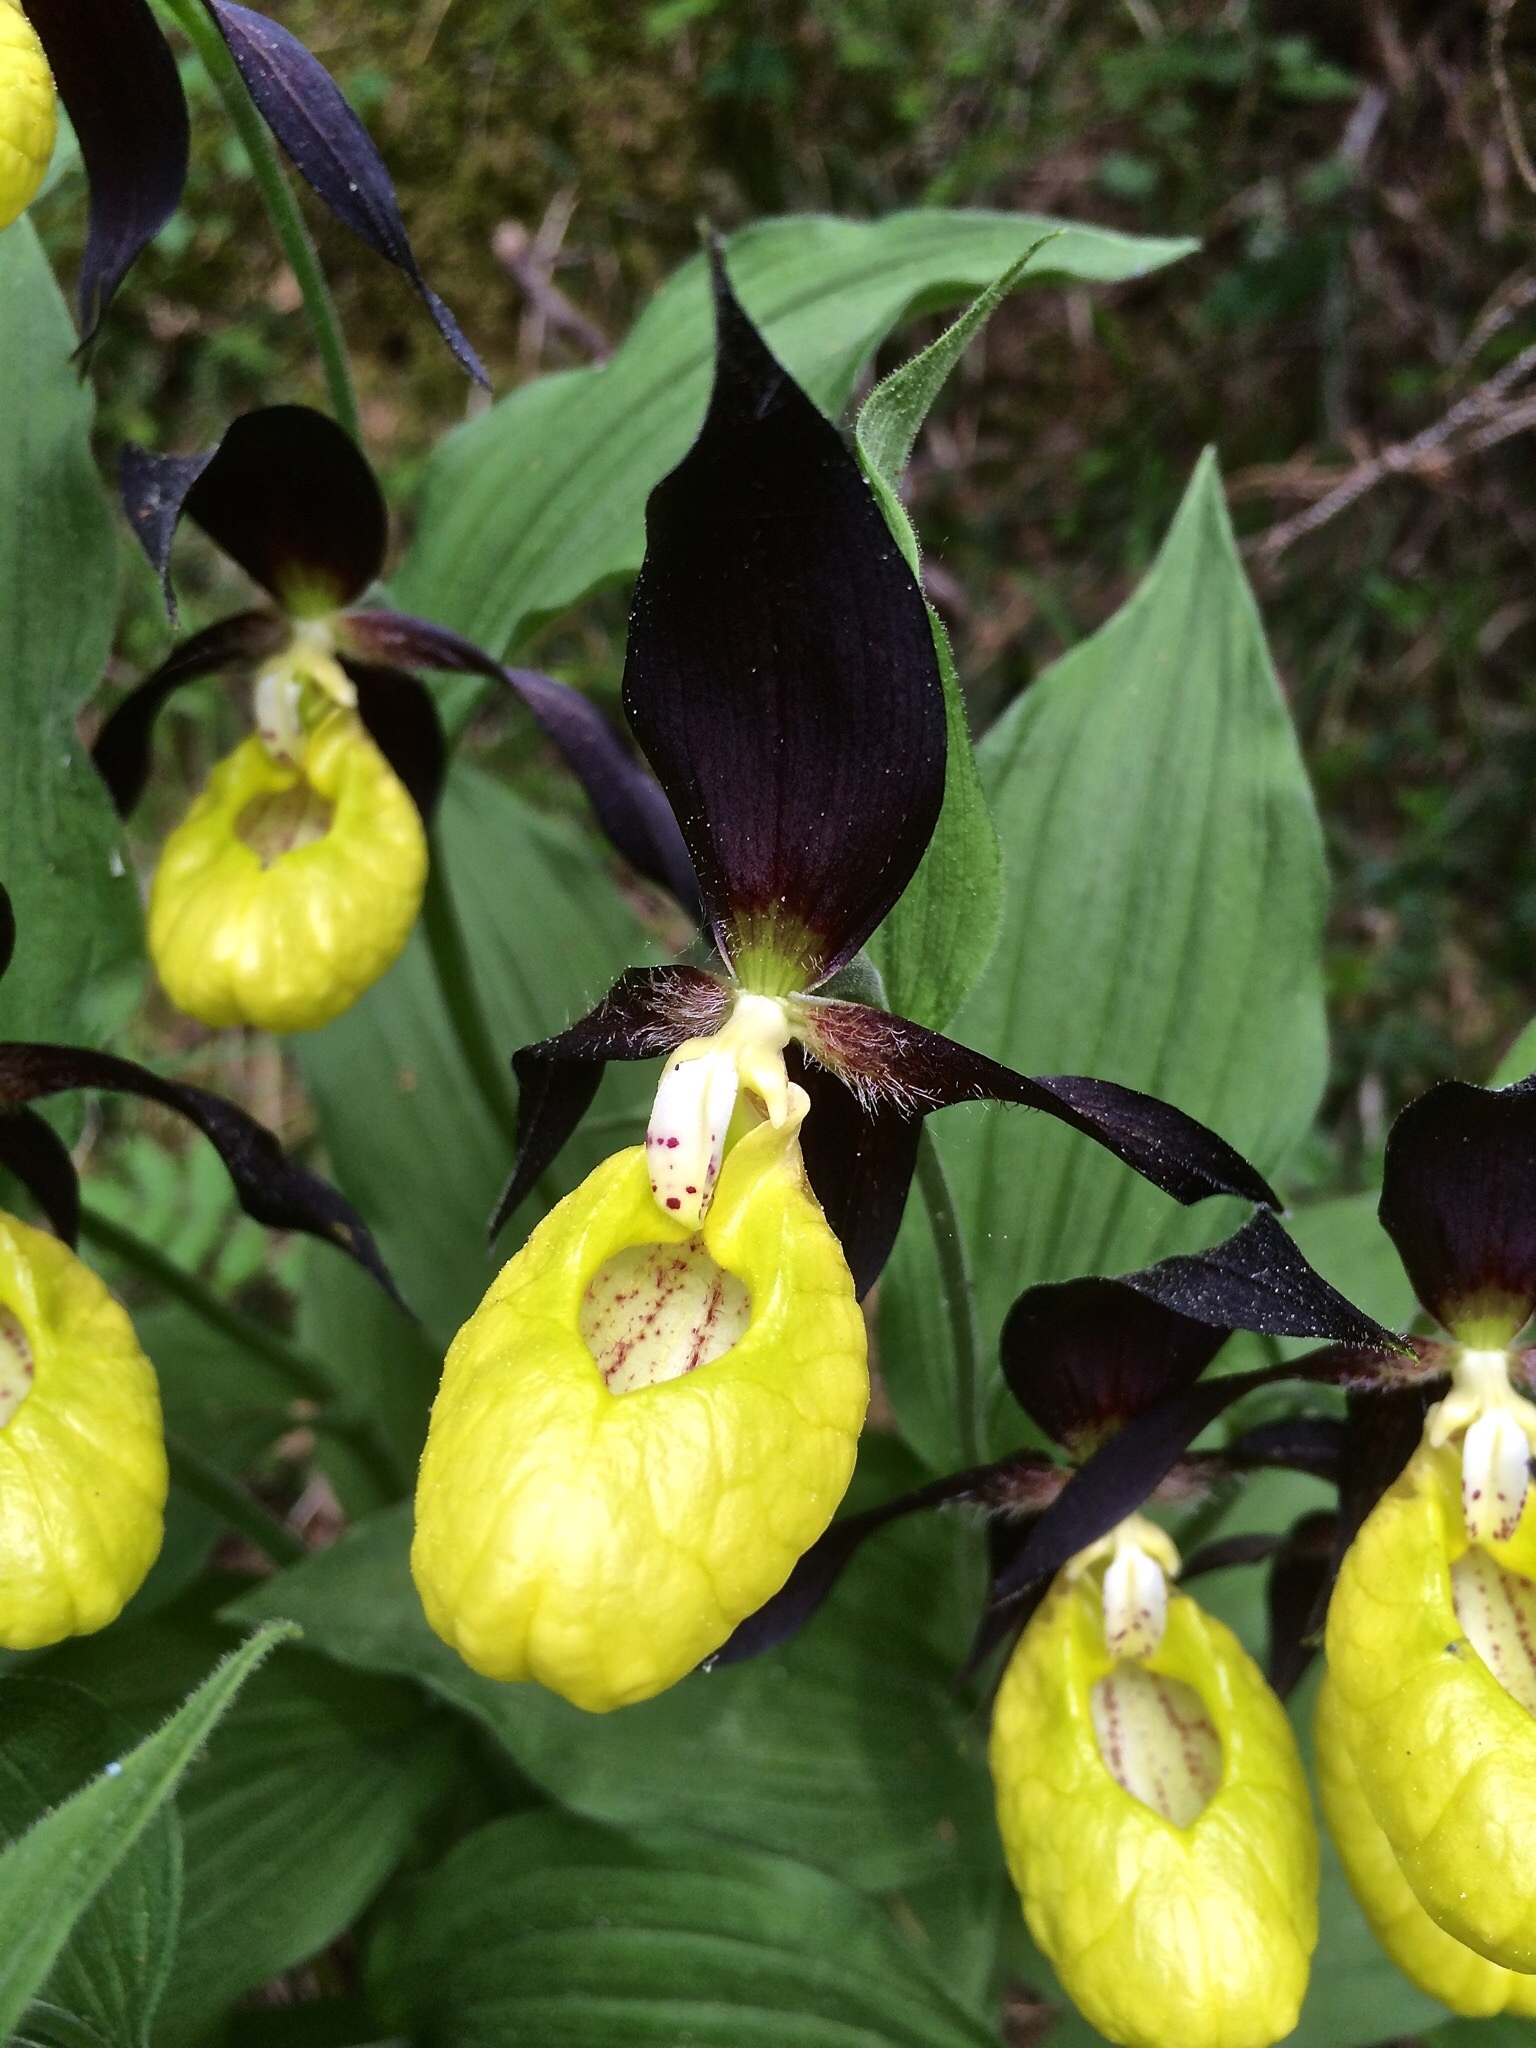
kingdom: Plantae
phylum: Tracheophyta
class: Liliopsida
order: Asparagales
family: Orchidaceae
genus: Cypripedium
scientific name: Cypripedium calceolus
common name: Lady's-slipper
